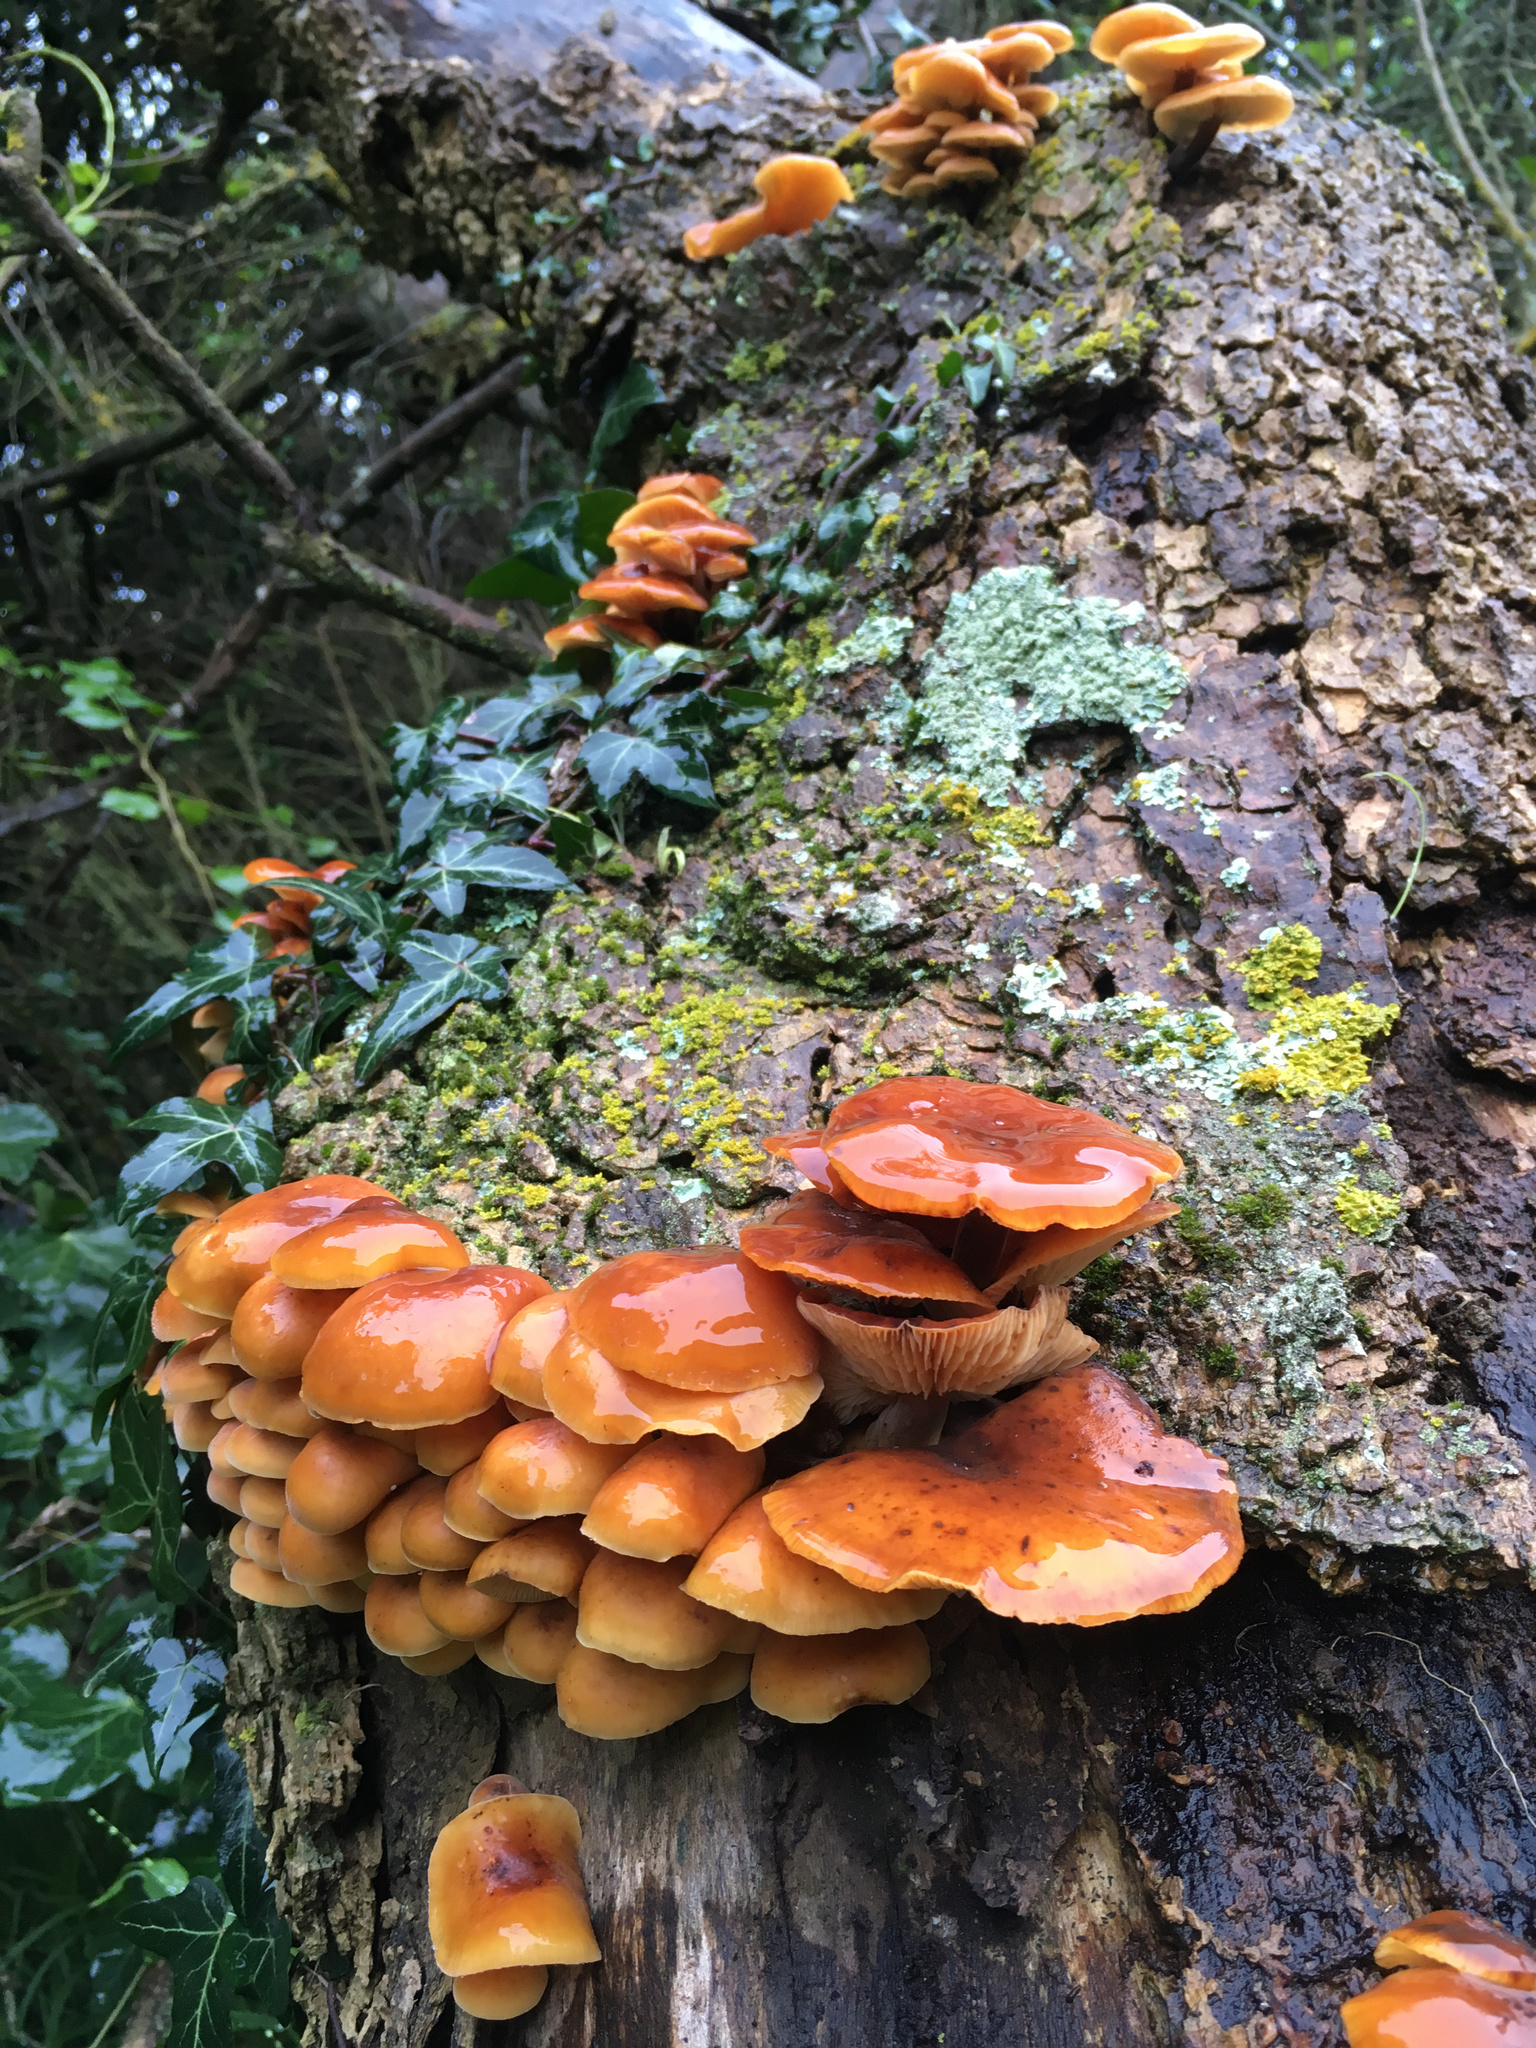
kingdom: Fungi
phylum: Basidiomycota
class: Agaricomycetes
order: Agaricales
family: Physalacriaceae
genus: Flammulina
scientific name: Flammulina velutipes
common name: Velvet shank
